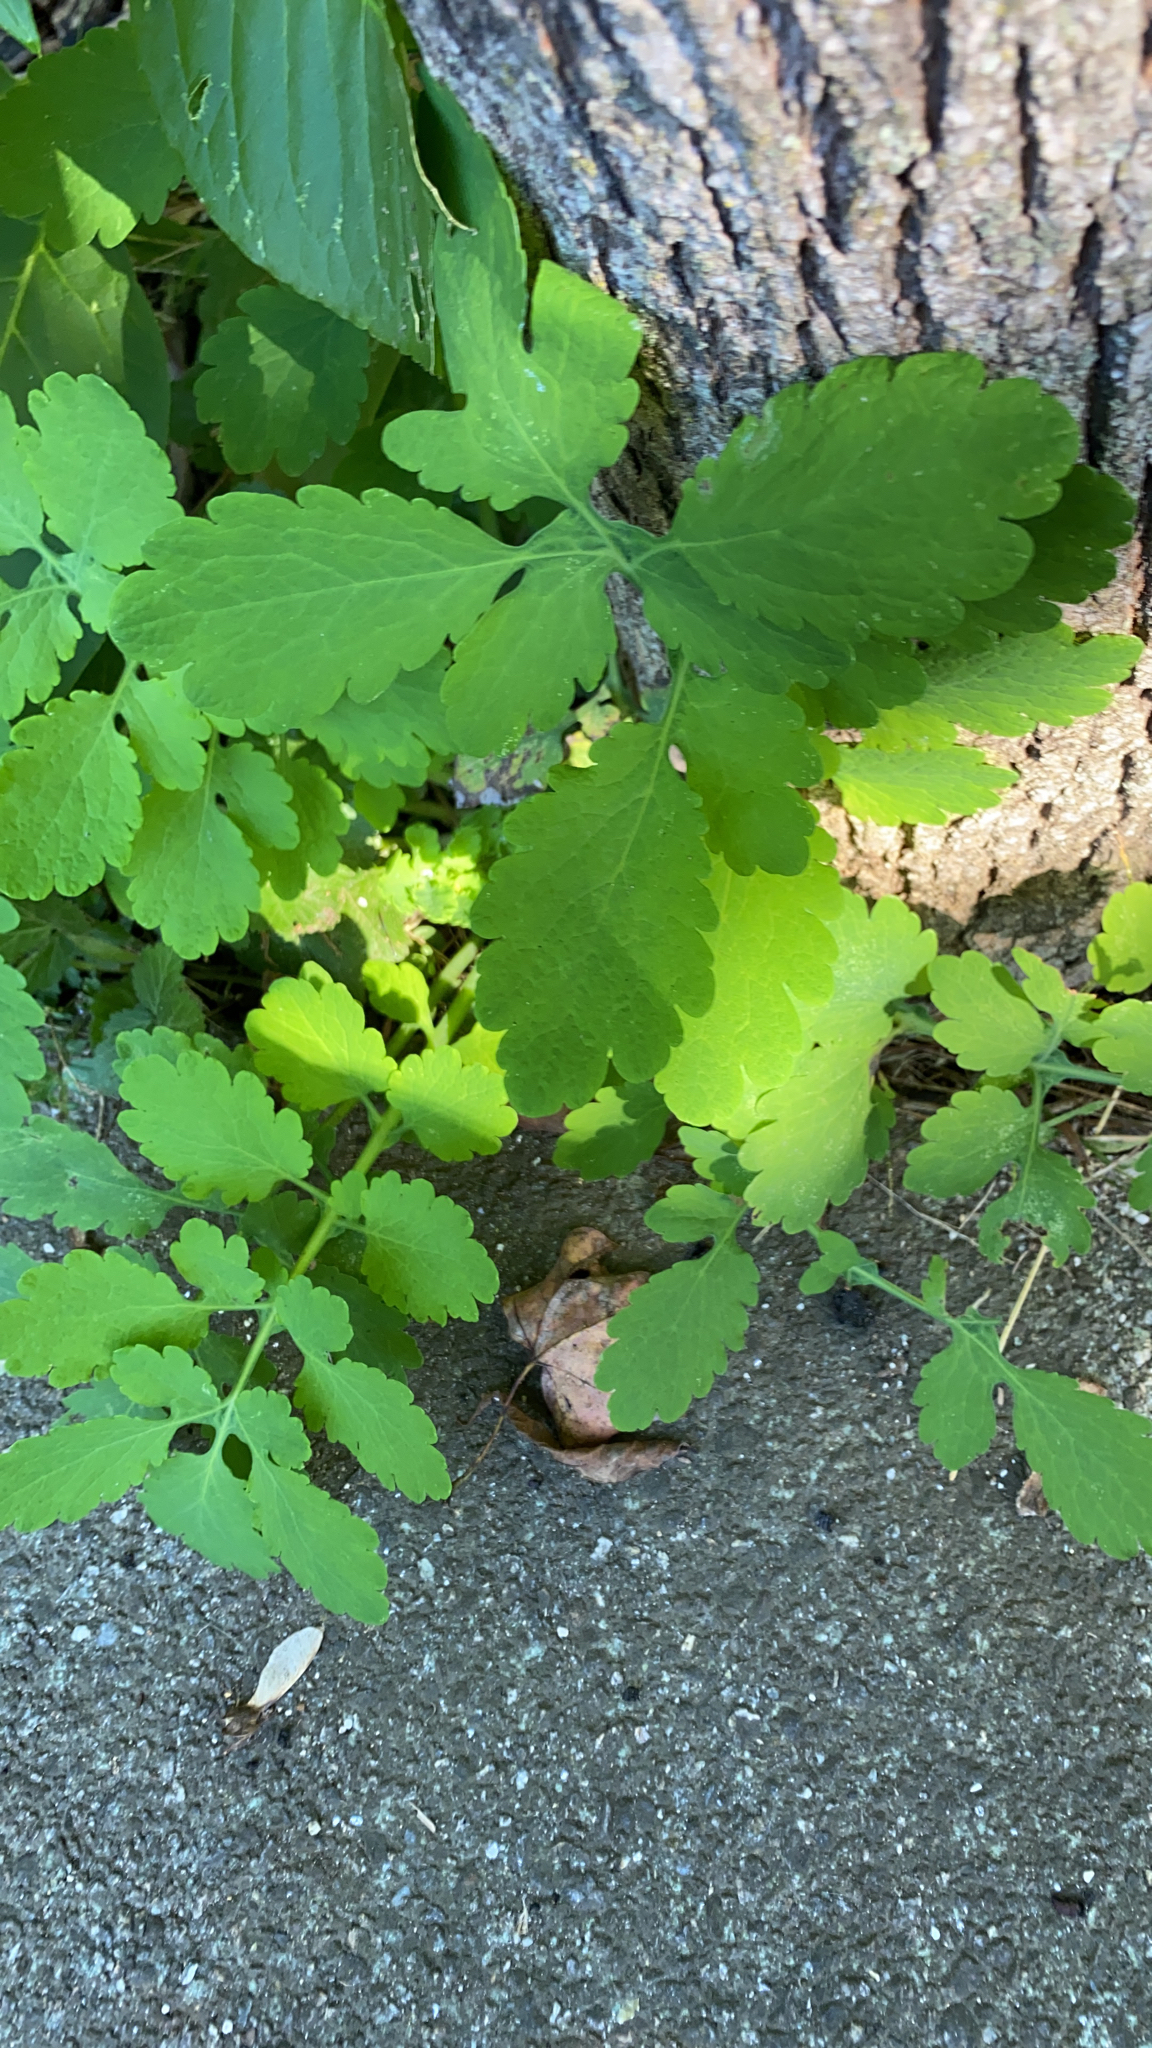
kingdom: Plantae
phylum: Tracheophyta
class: Magnoliopsida
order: Ranunculales
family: Papaveraceae
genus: Chelidonium
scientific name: Chelidonium majus
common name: Greater celandine
